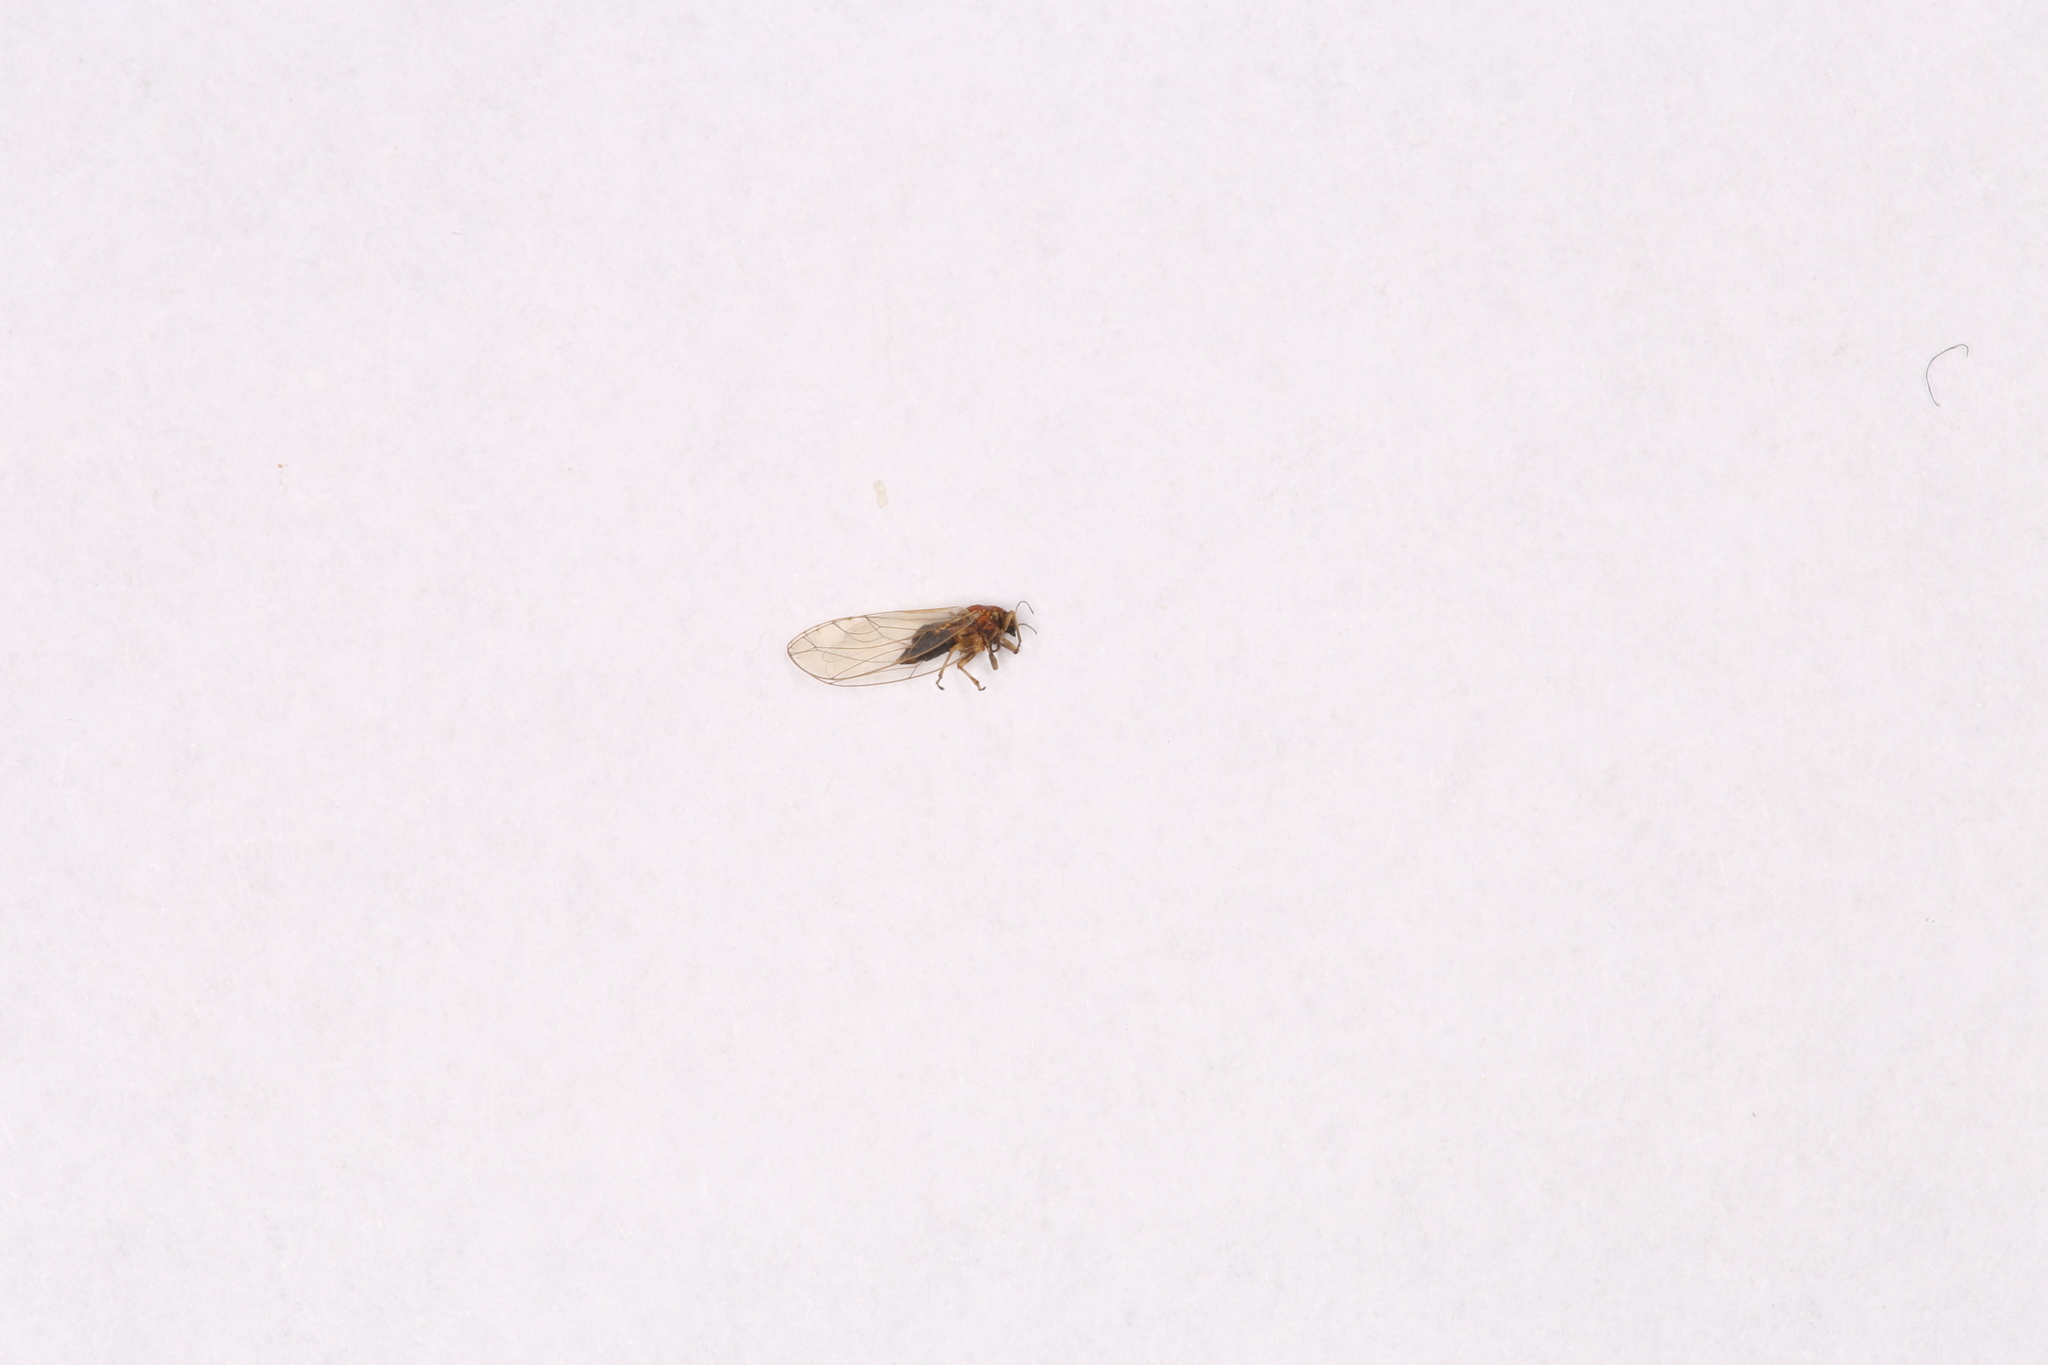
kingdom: Animalia
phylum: Arthropoda
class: Insecta
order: Hemiptera
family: Triozidae
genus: Trioza
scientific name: Trioza remota
